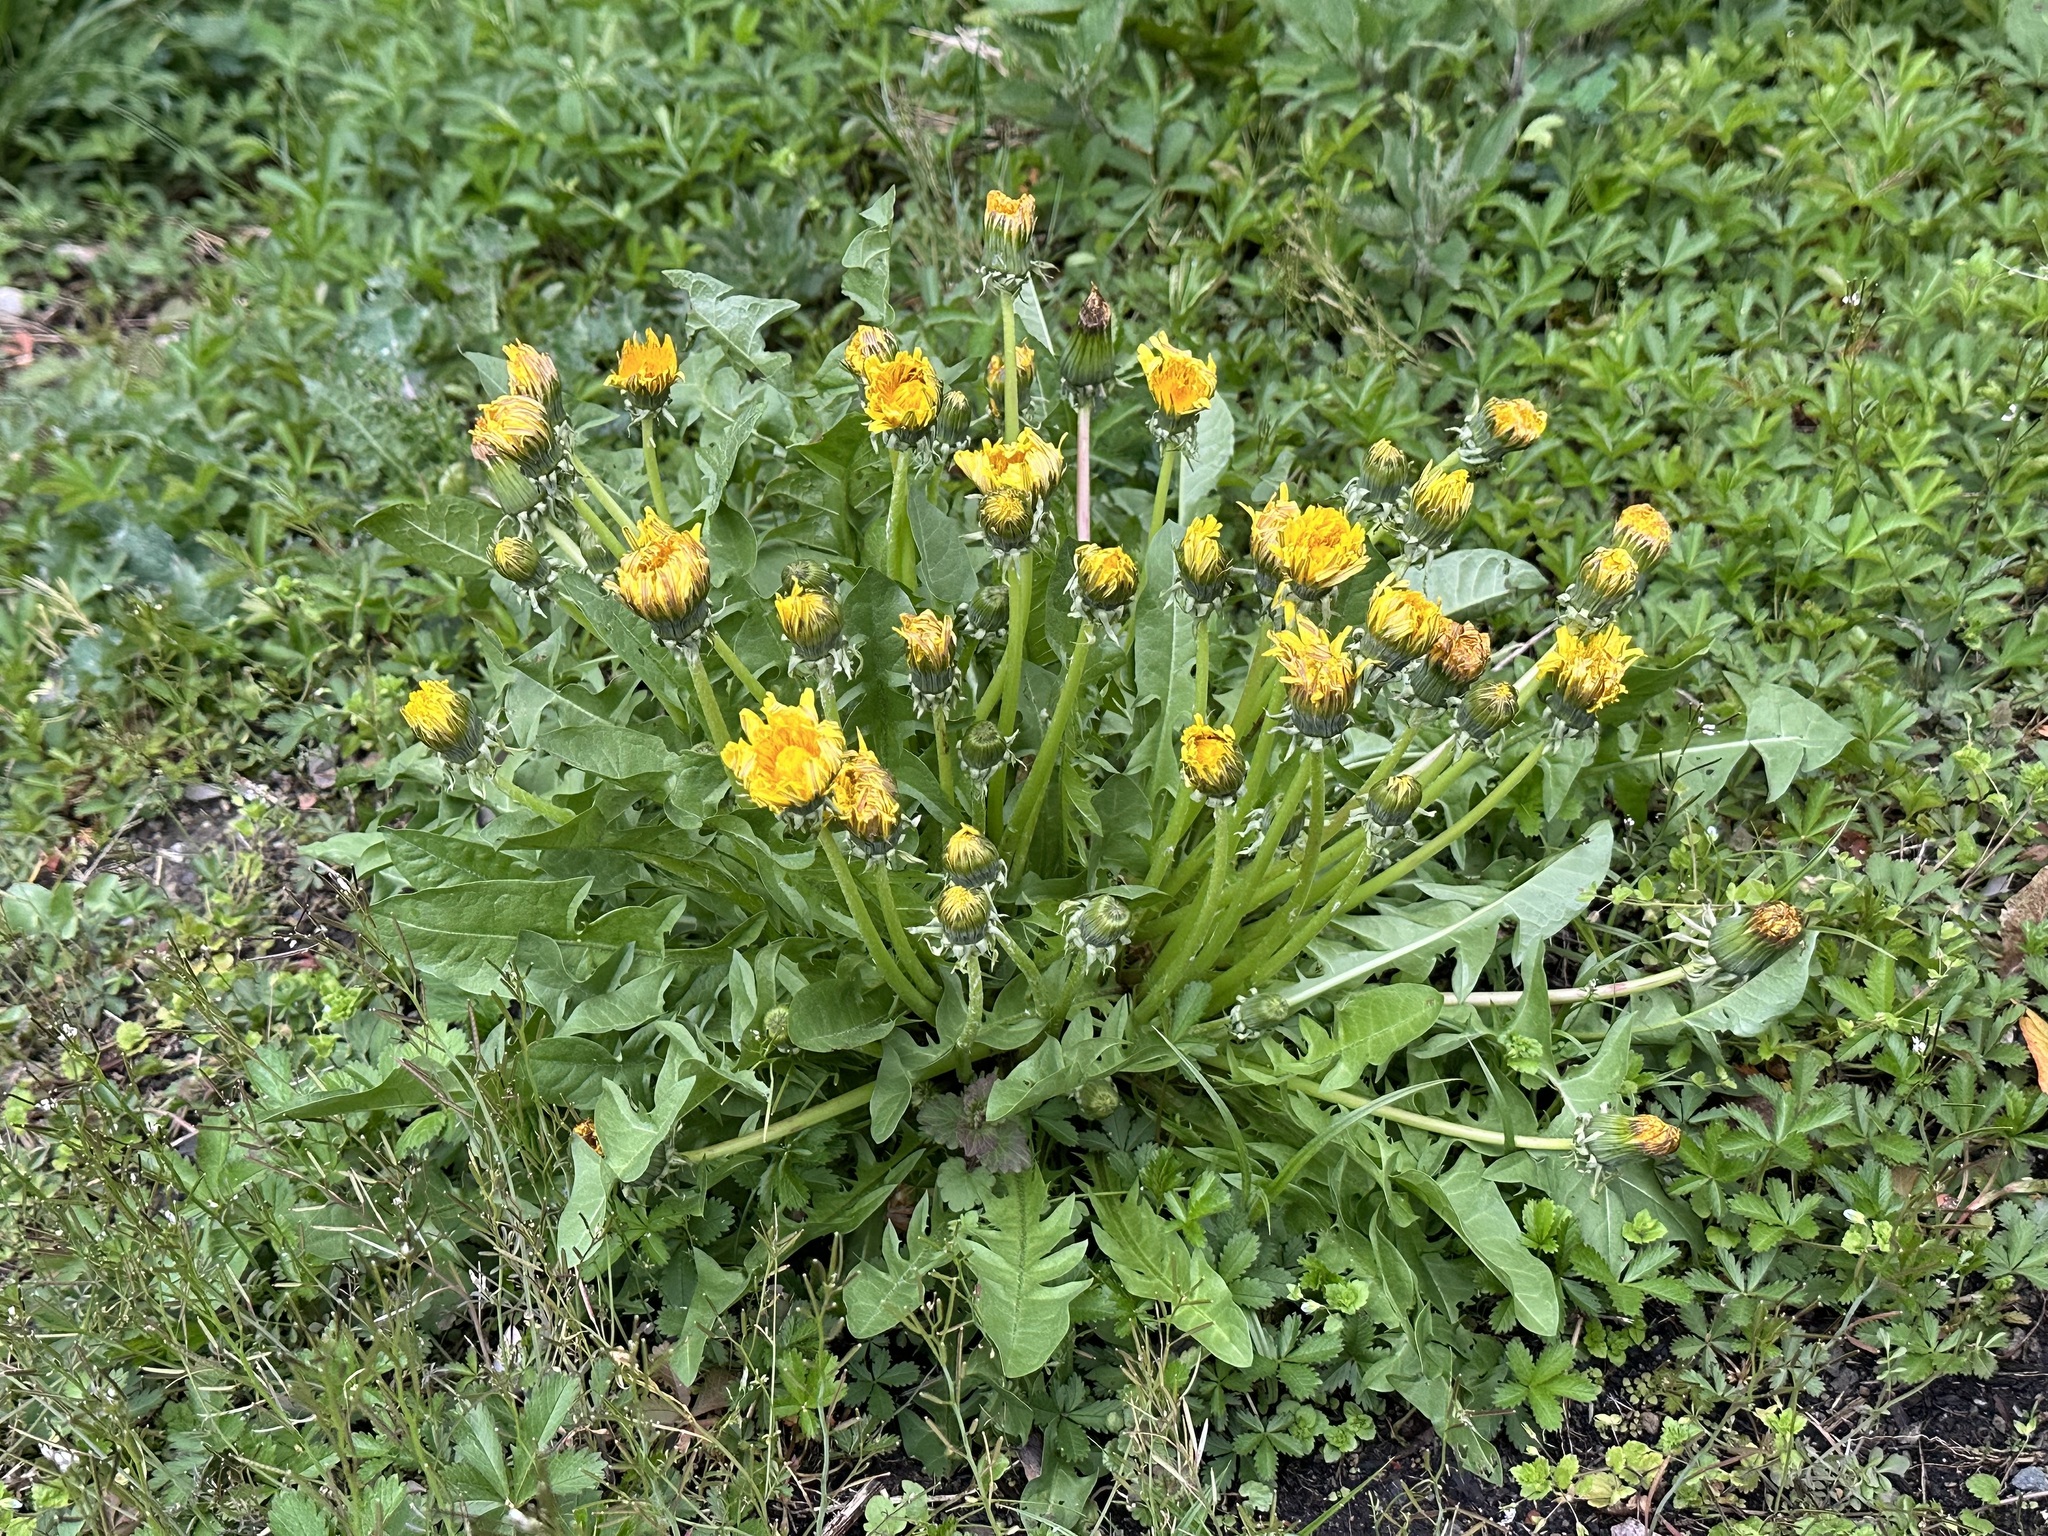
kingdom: Plantae
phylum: Tracheophyta
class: Magnoliopsida
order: Asterales
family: Asteraceae
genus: Taraxacum
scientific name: Taraxacum officinale
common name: Common dandelion
